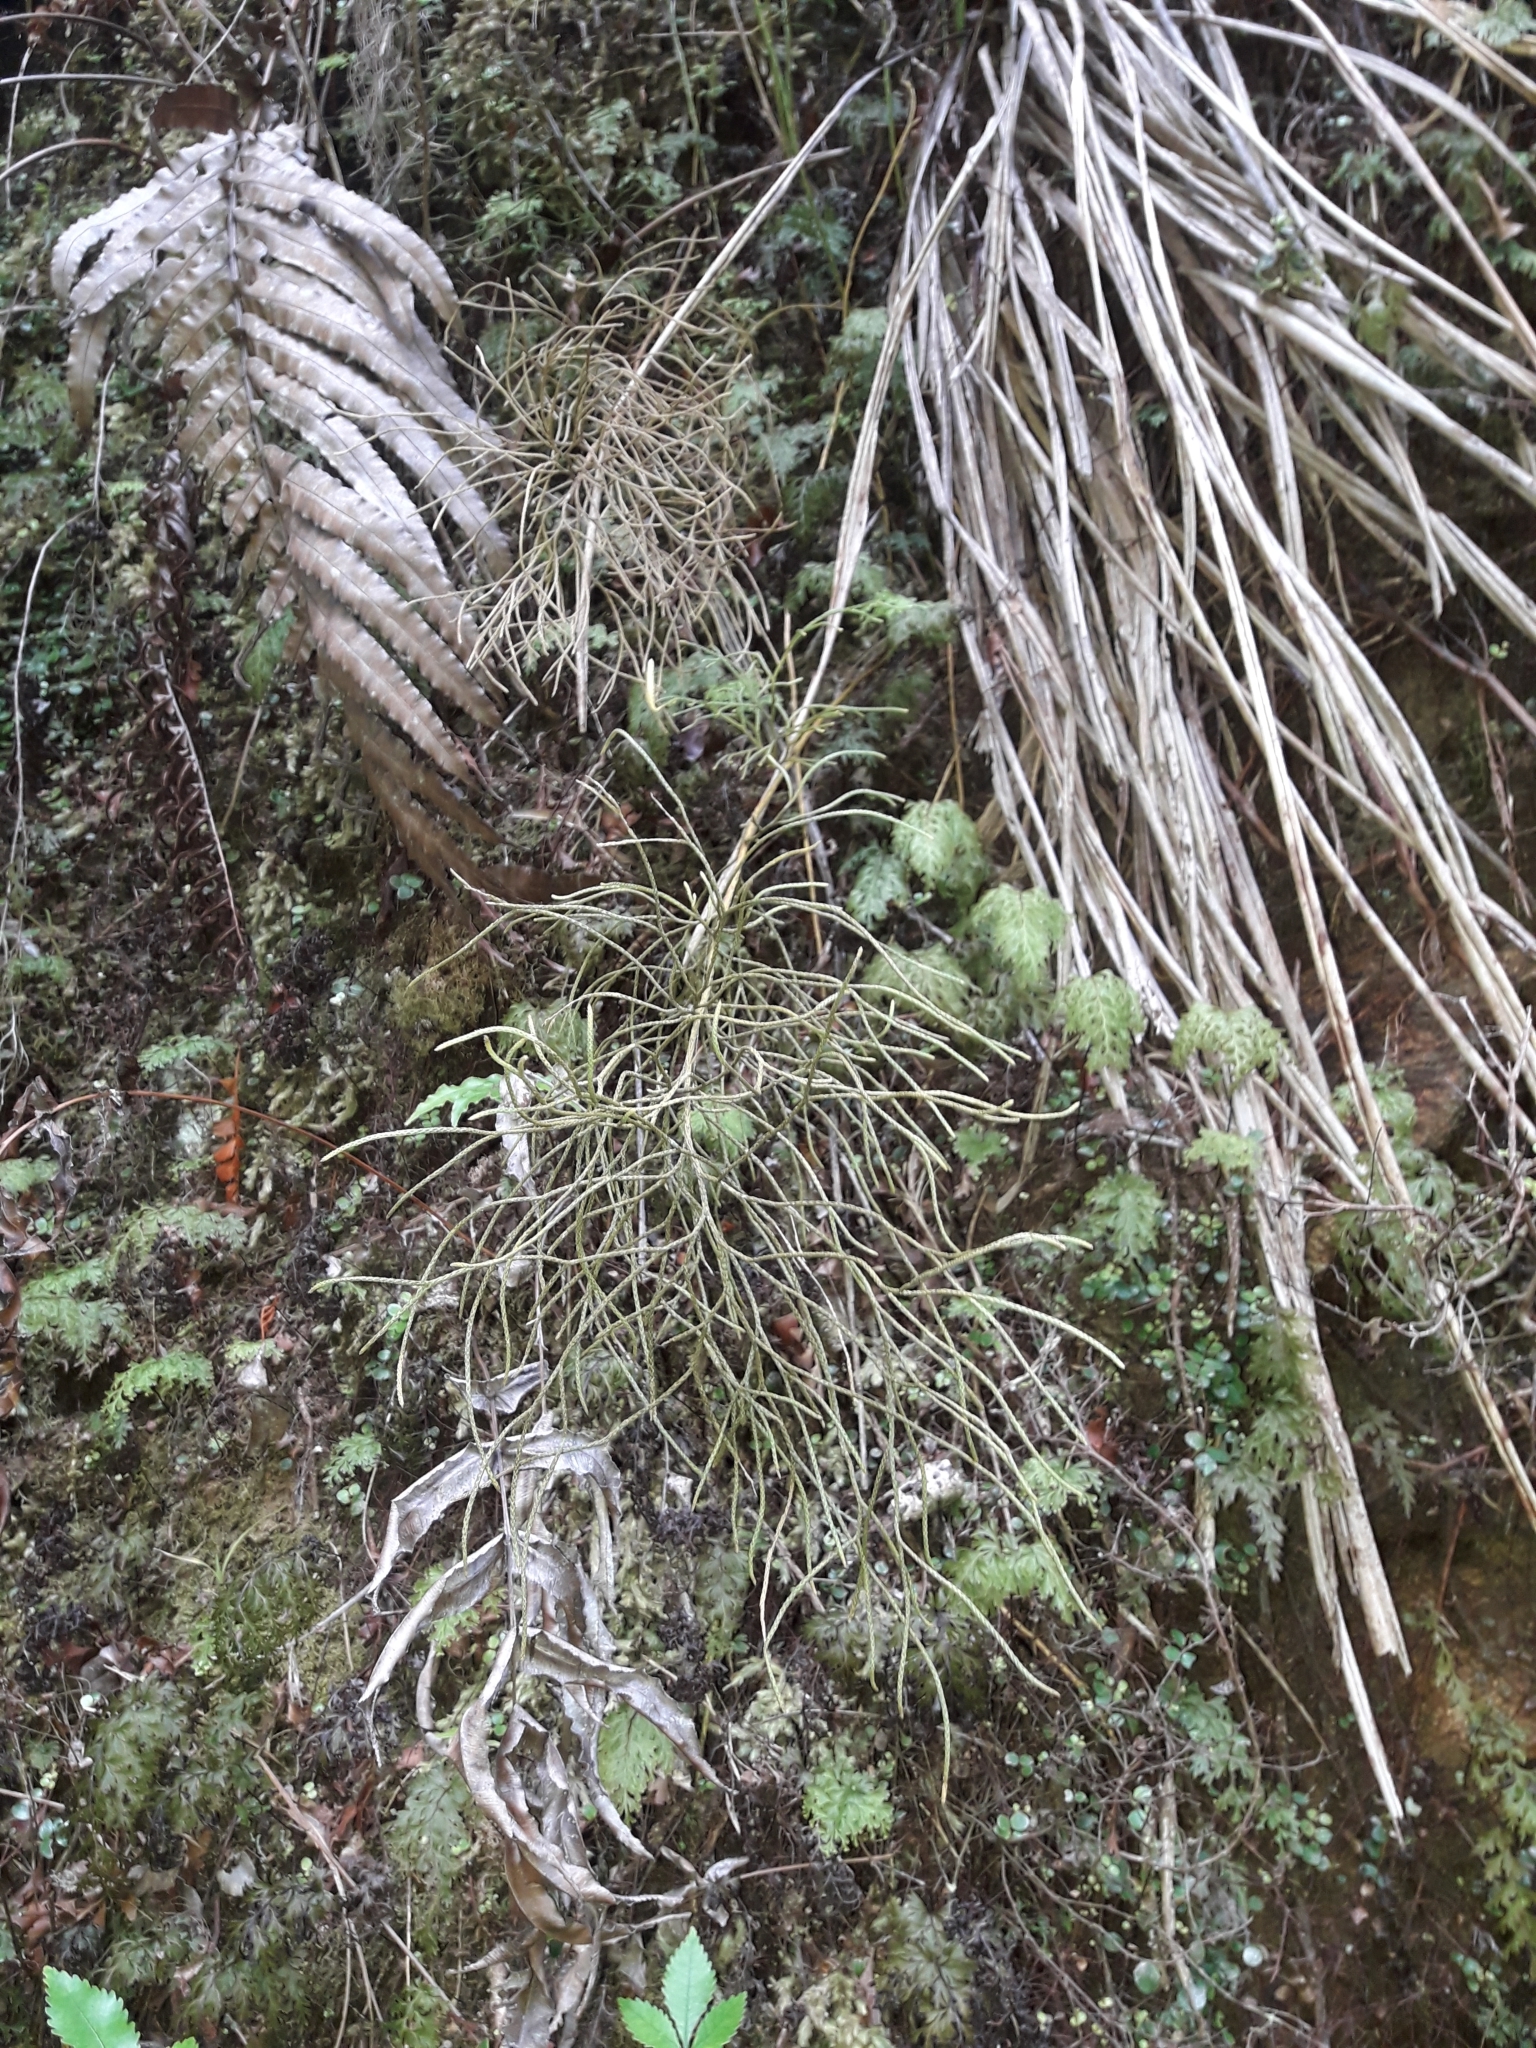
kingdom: Plantae
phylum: Tracheophyta
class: Lycopodiopsida
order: Lycopodiales
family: Lycopodiaceae
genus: Pseudolycopodium
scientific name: Pseudolycopodium densum
